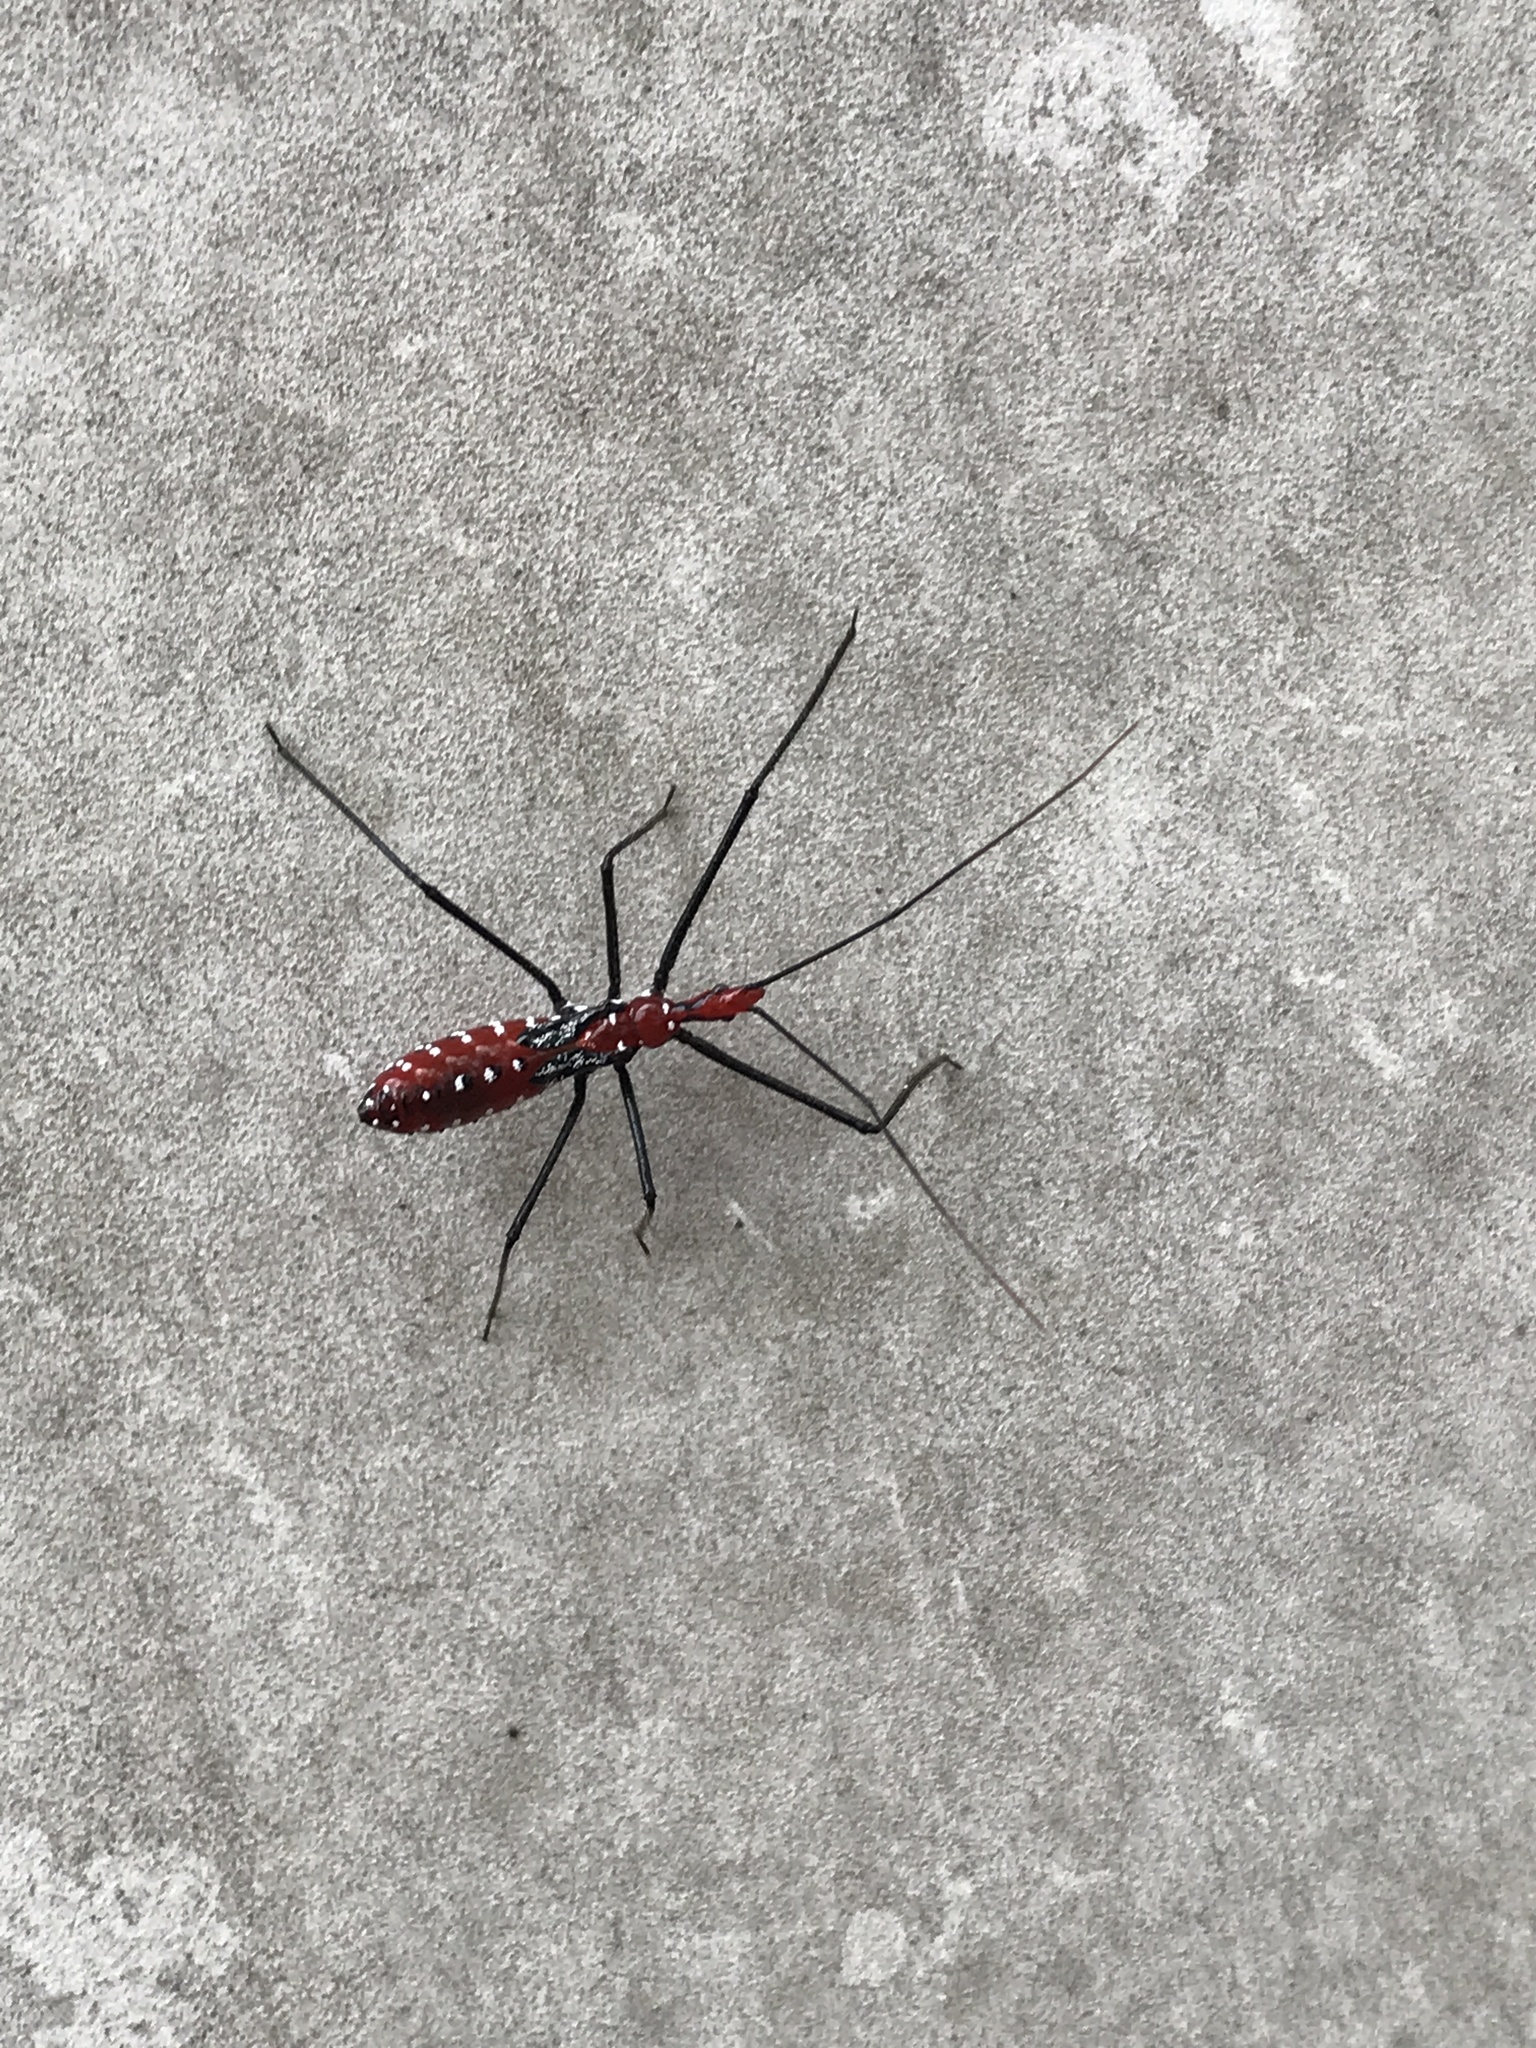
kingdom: Animalia
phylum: Arthropoda
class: Insecta
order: Hemiptera
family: Reduviidae
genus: Zelus
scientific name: Zelus longipes
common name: Milkweed assassin bug
